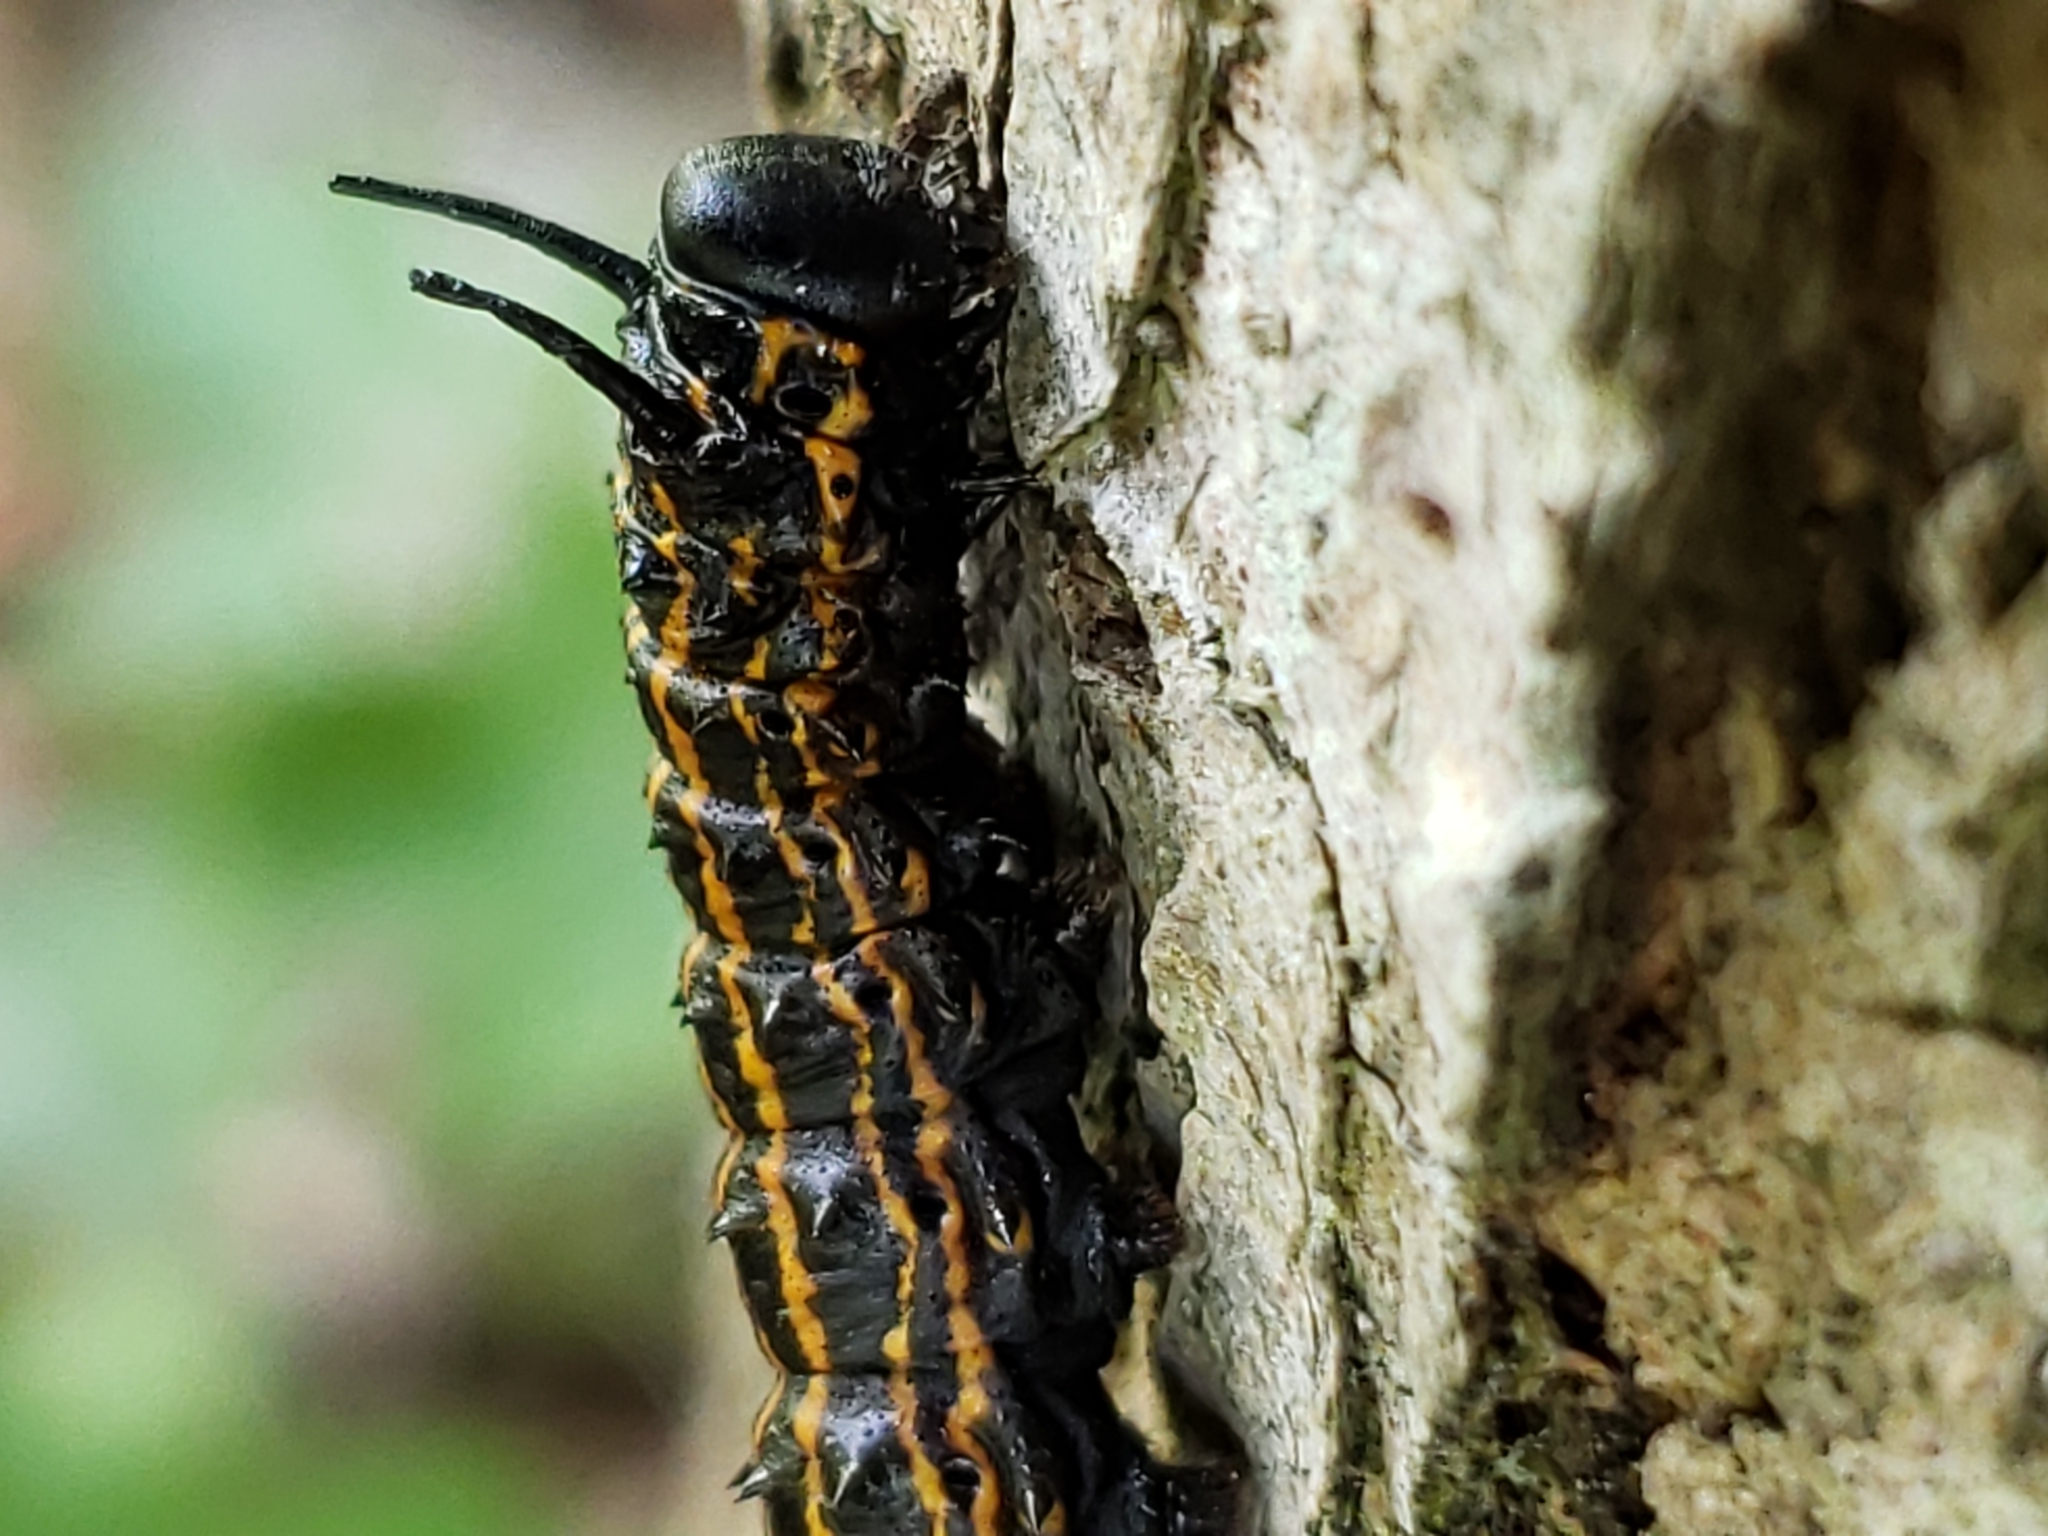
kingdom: Animalia
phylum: Arthropoda
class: Insecta
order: Lepidoptera
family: Saturniidae
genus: Anisota
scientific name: Anisota senatoria
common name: Orange-striped oakworm moth
